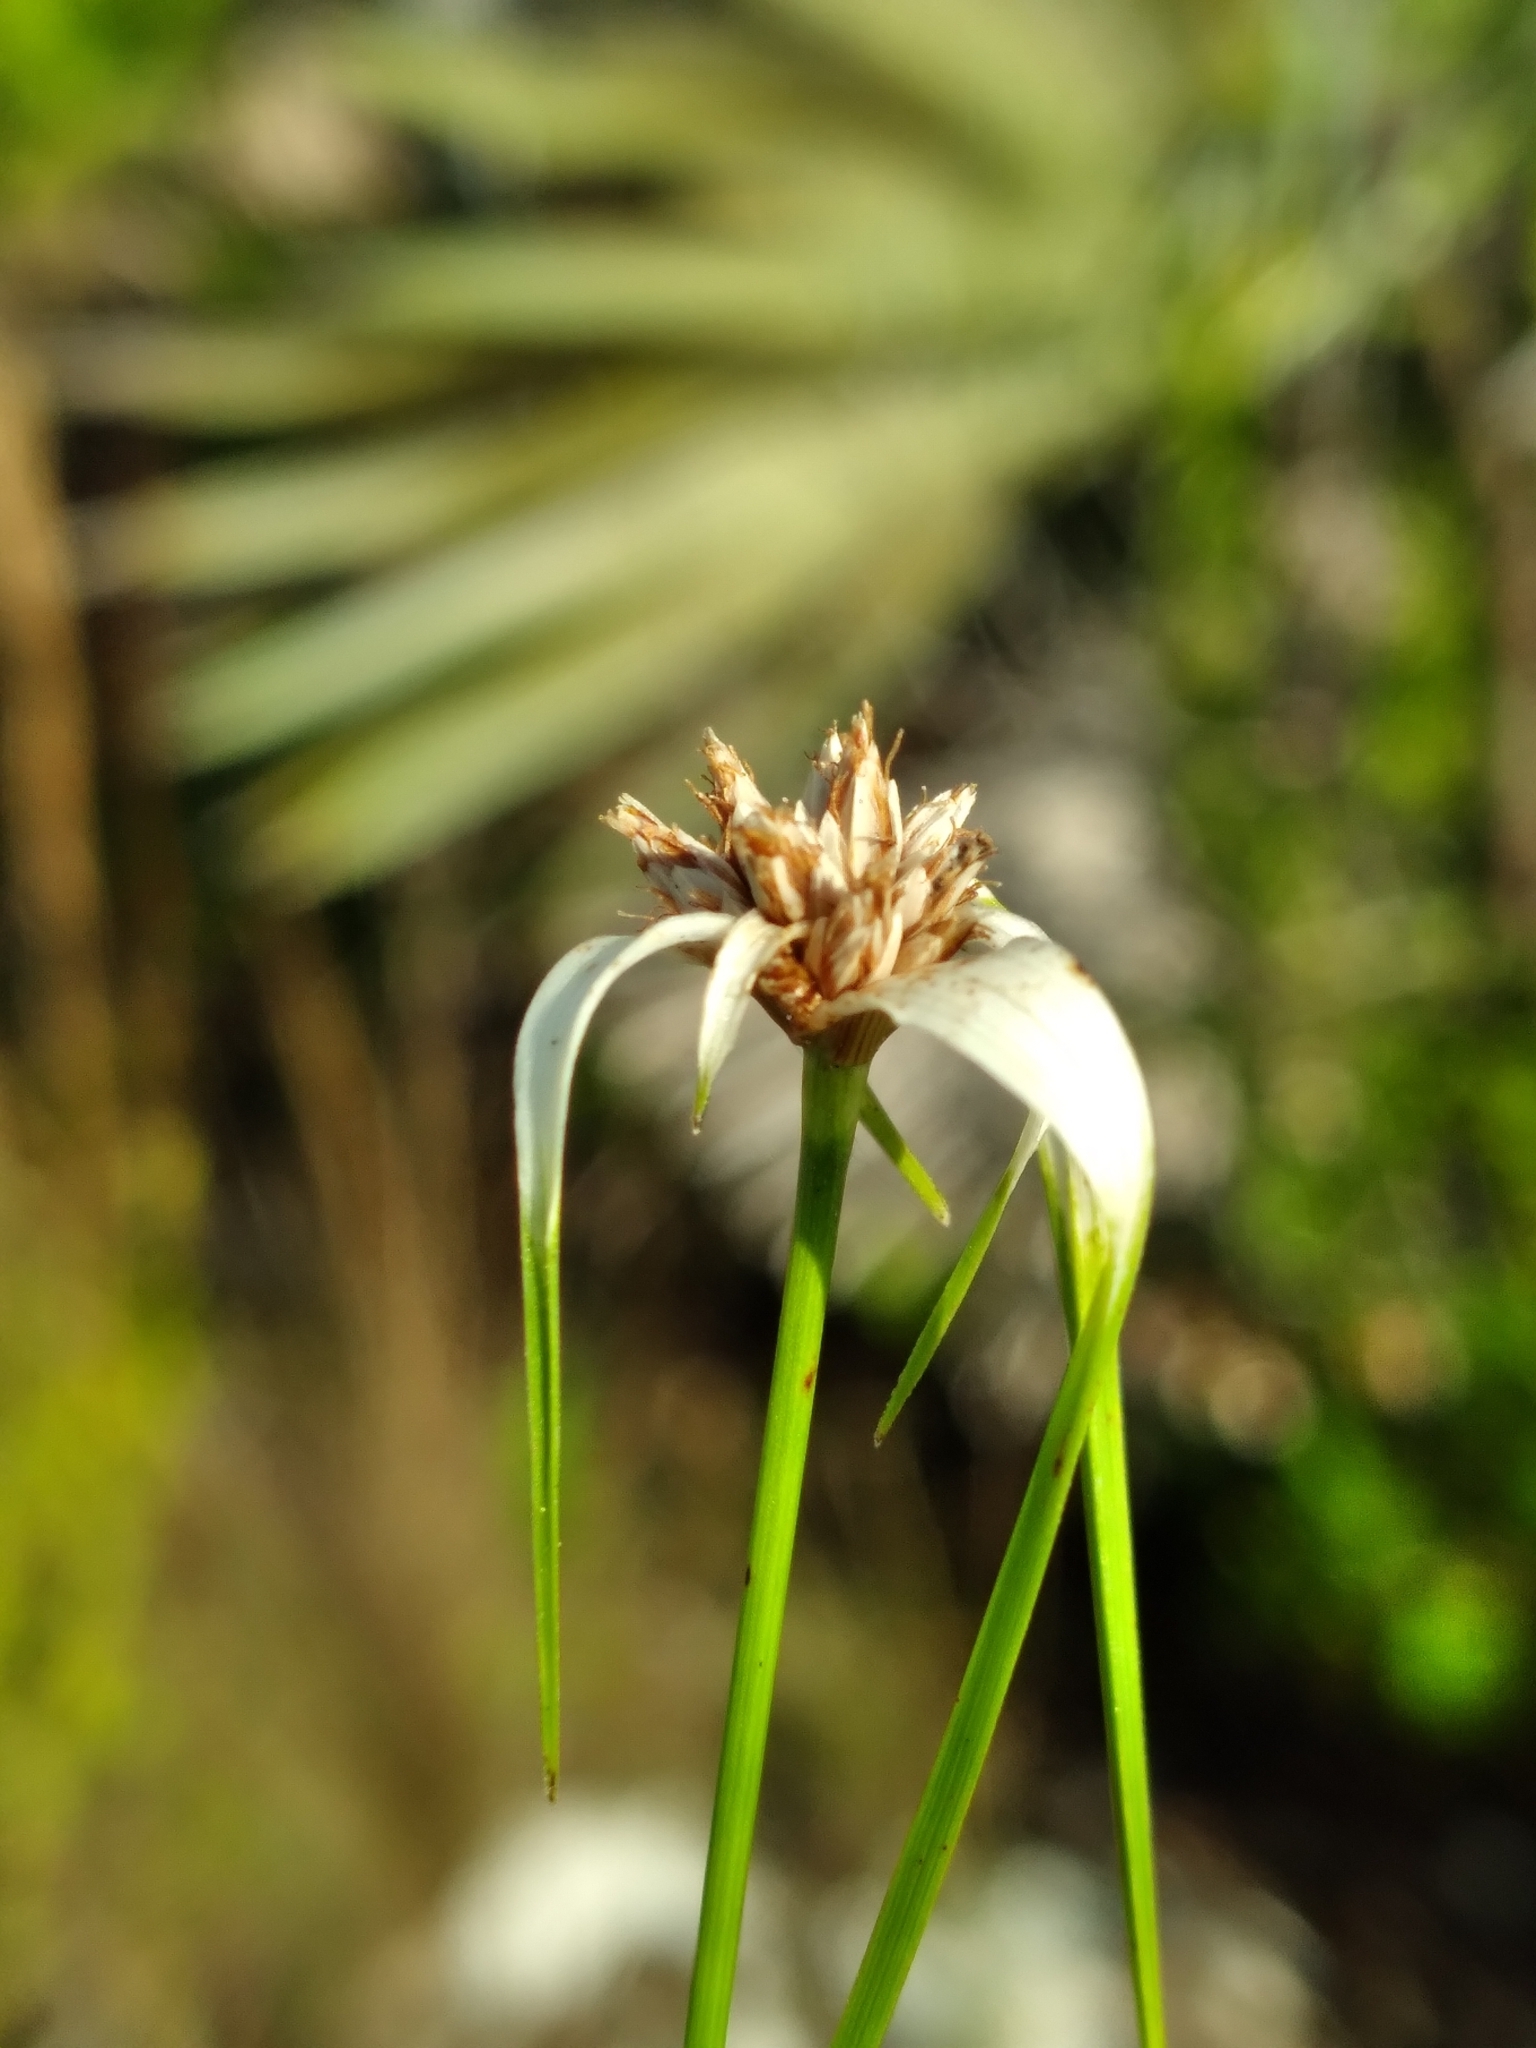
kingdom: Plantae
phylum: Tracheophyta
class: Liliopsida
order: Poales
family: Cyperaceae
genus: Rhynchospora
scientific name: Rhynchospora floridensis
